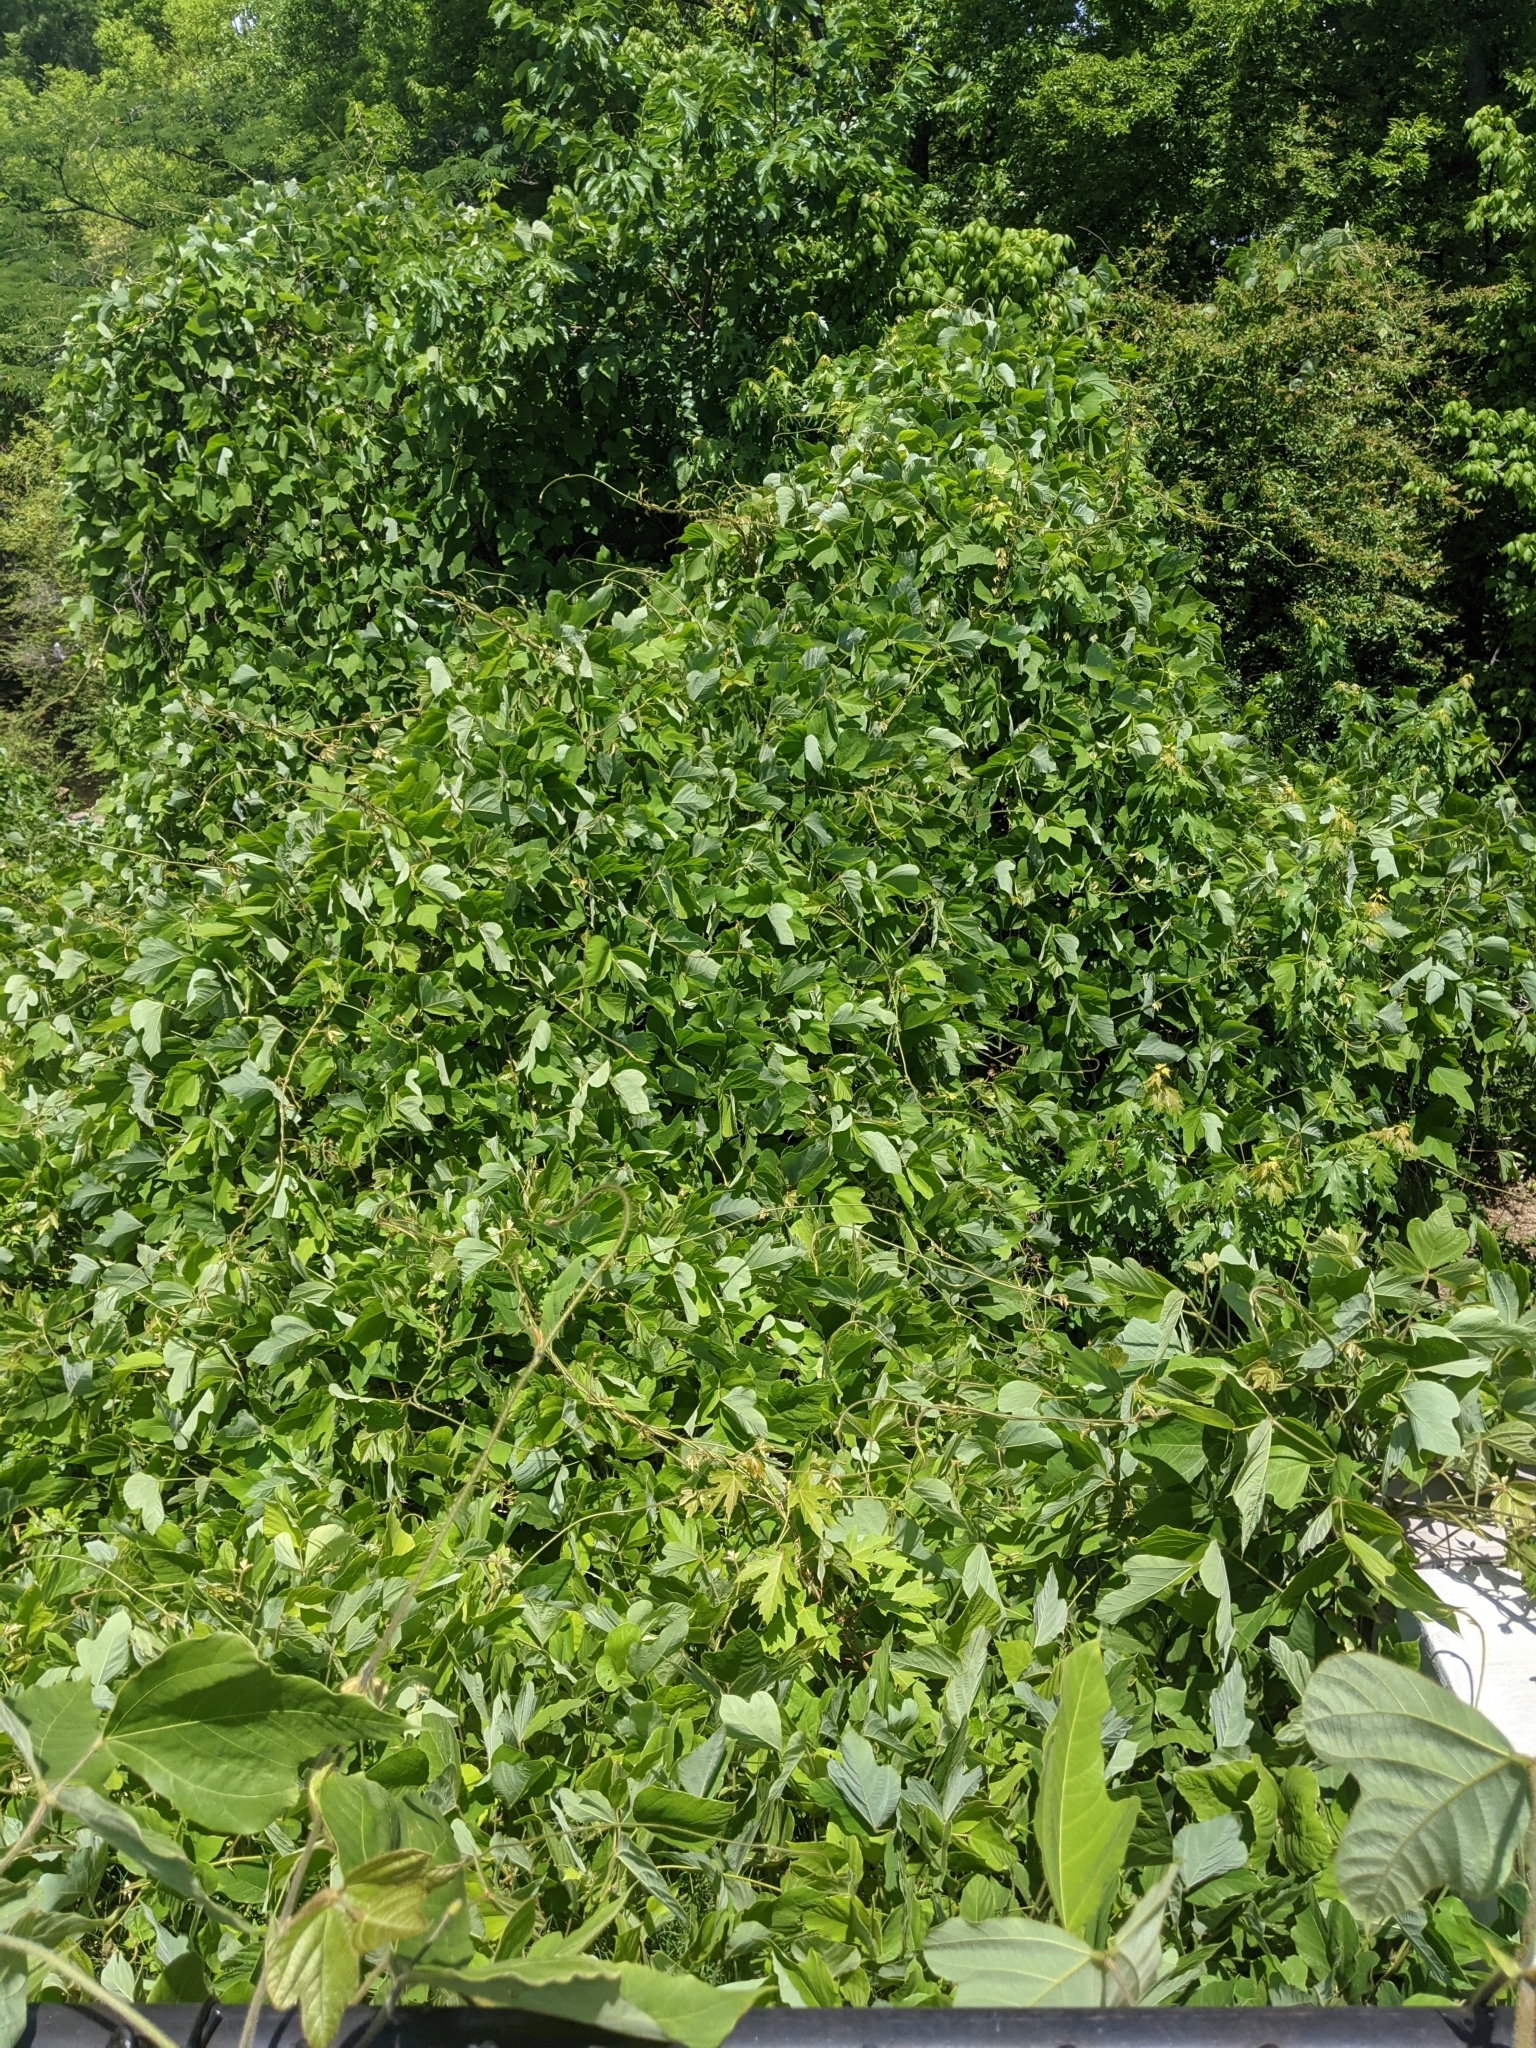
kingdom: Plantae
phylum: Tracheophyta
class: Magnoliopsida
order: Fabales
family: Fabaceae
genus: Pueraria
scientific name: Pueraria montana
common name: Kudzu
